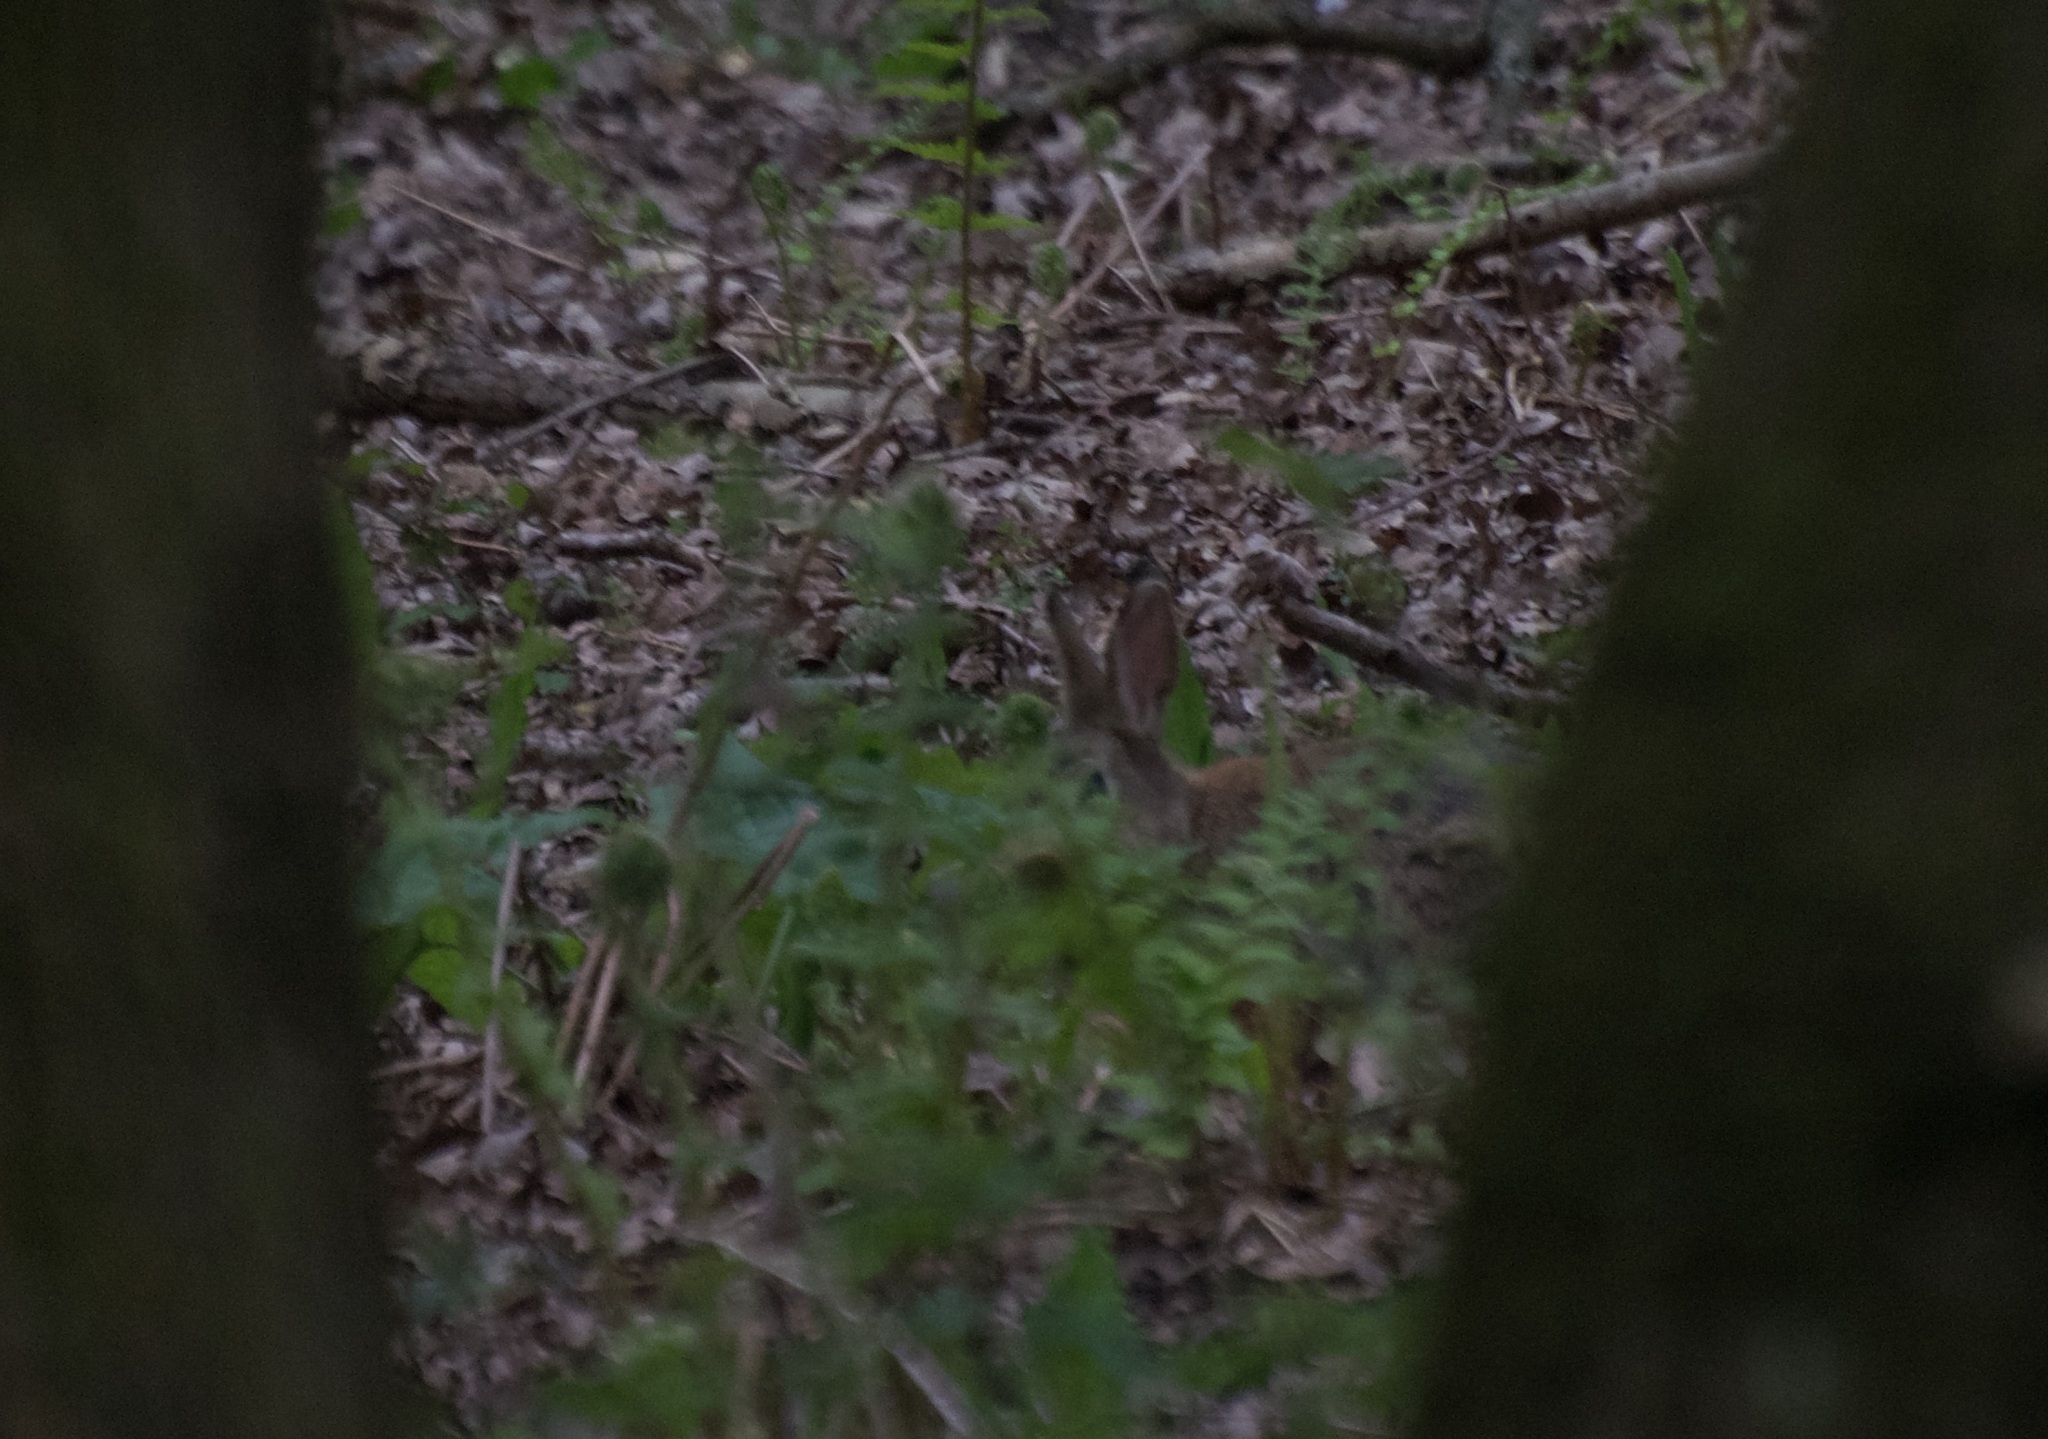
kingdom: Animalia
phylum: Chordata
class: Mammalia
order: Lagomorpha
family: Leporidae
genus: Oryctolagus
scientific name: Oryctolagus cuniculus
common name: European rabbit
